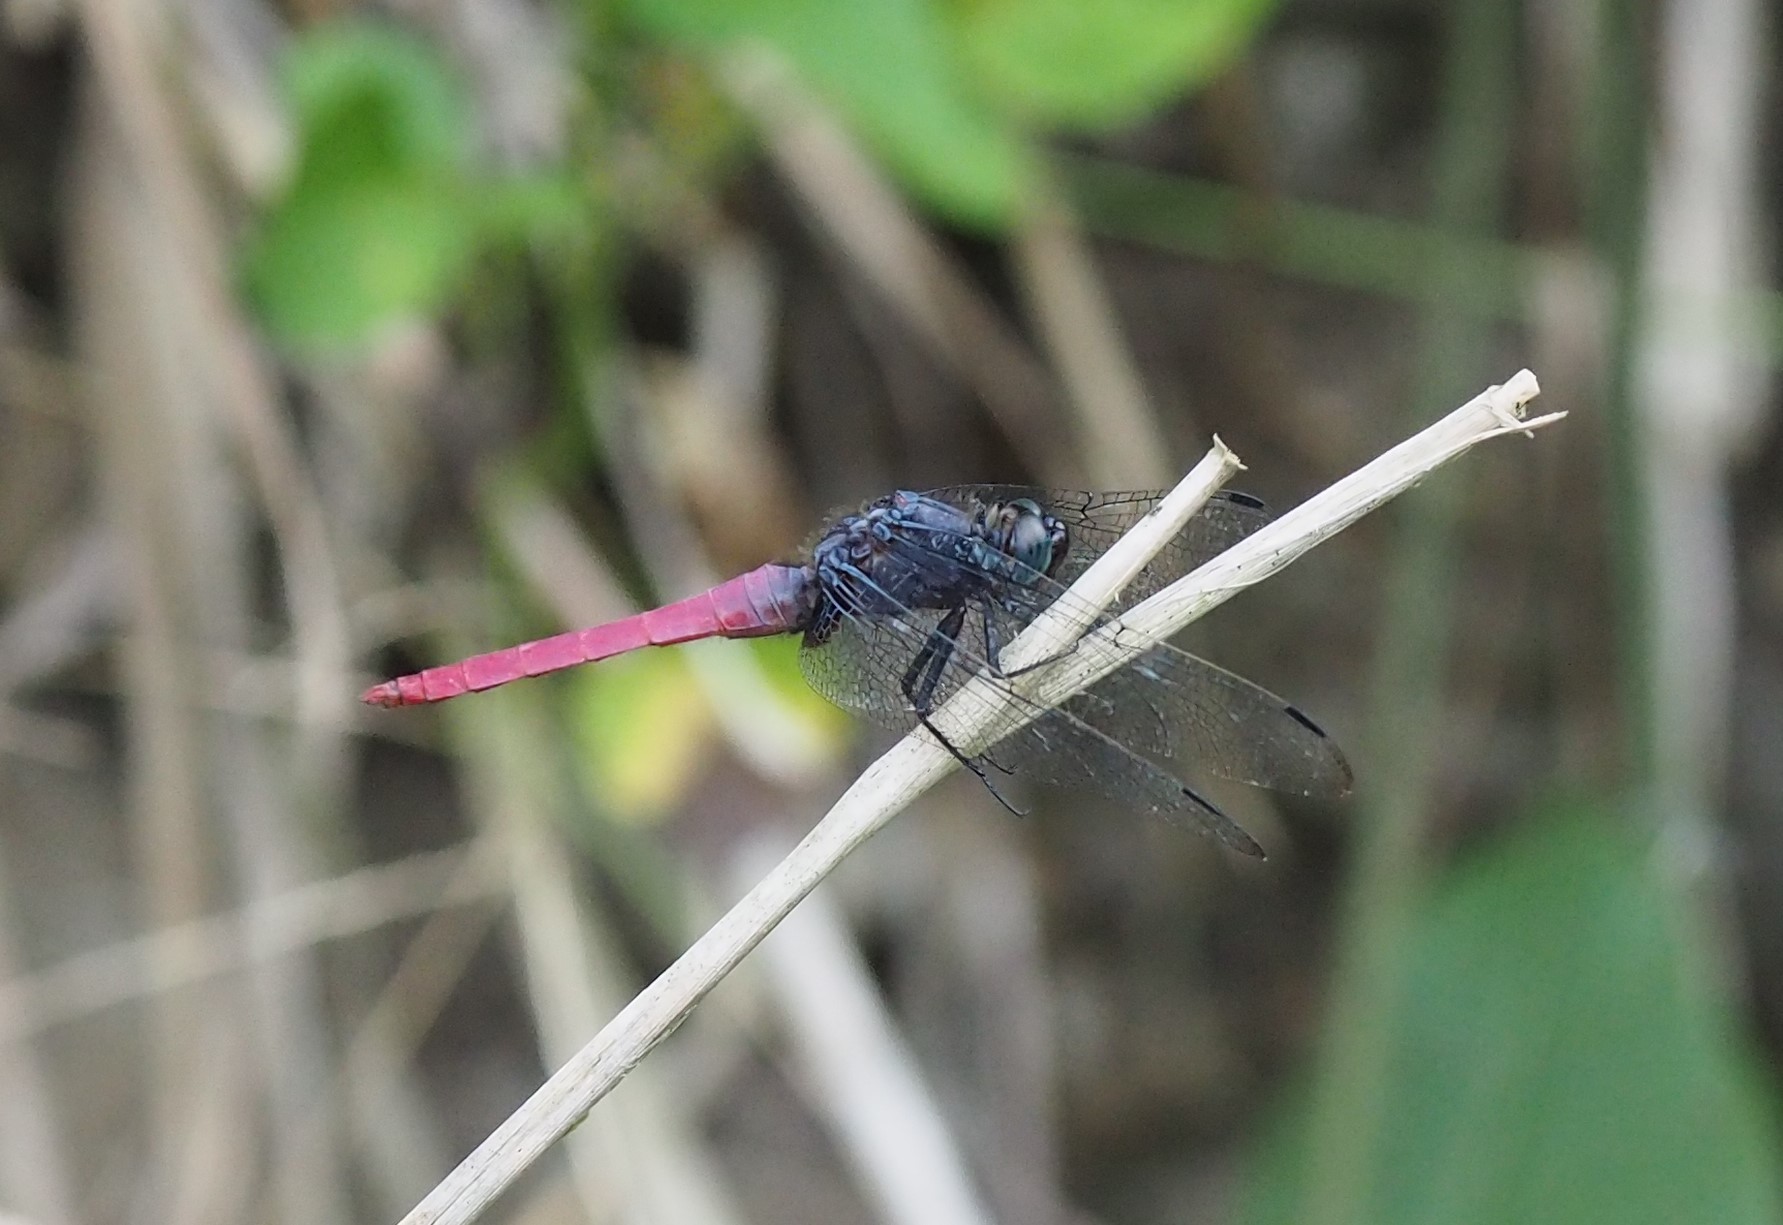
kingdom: Animalia
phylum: Arthropoda
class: Insecta
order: Odonata
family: Libellulidae
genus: Orthetrum
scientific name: Orthetrum pruinosum
